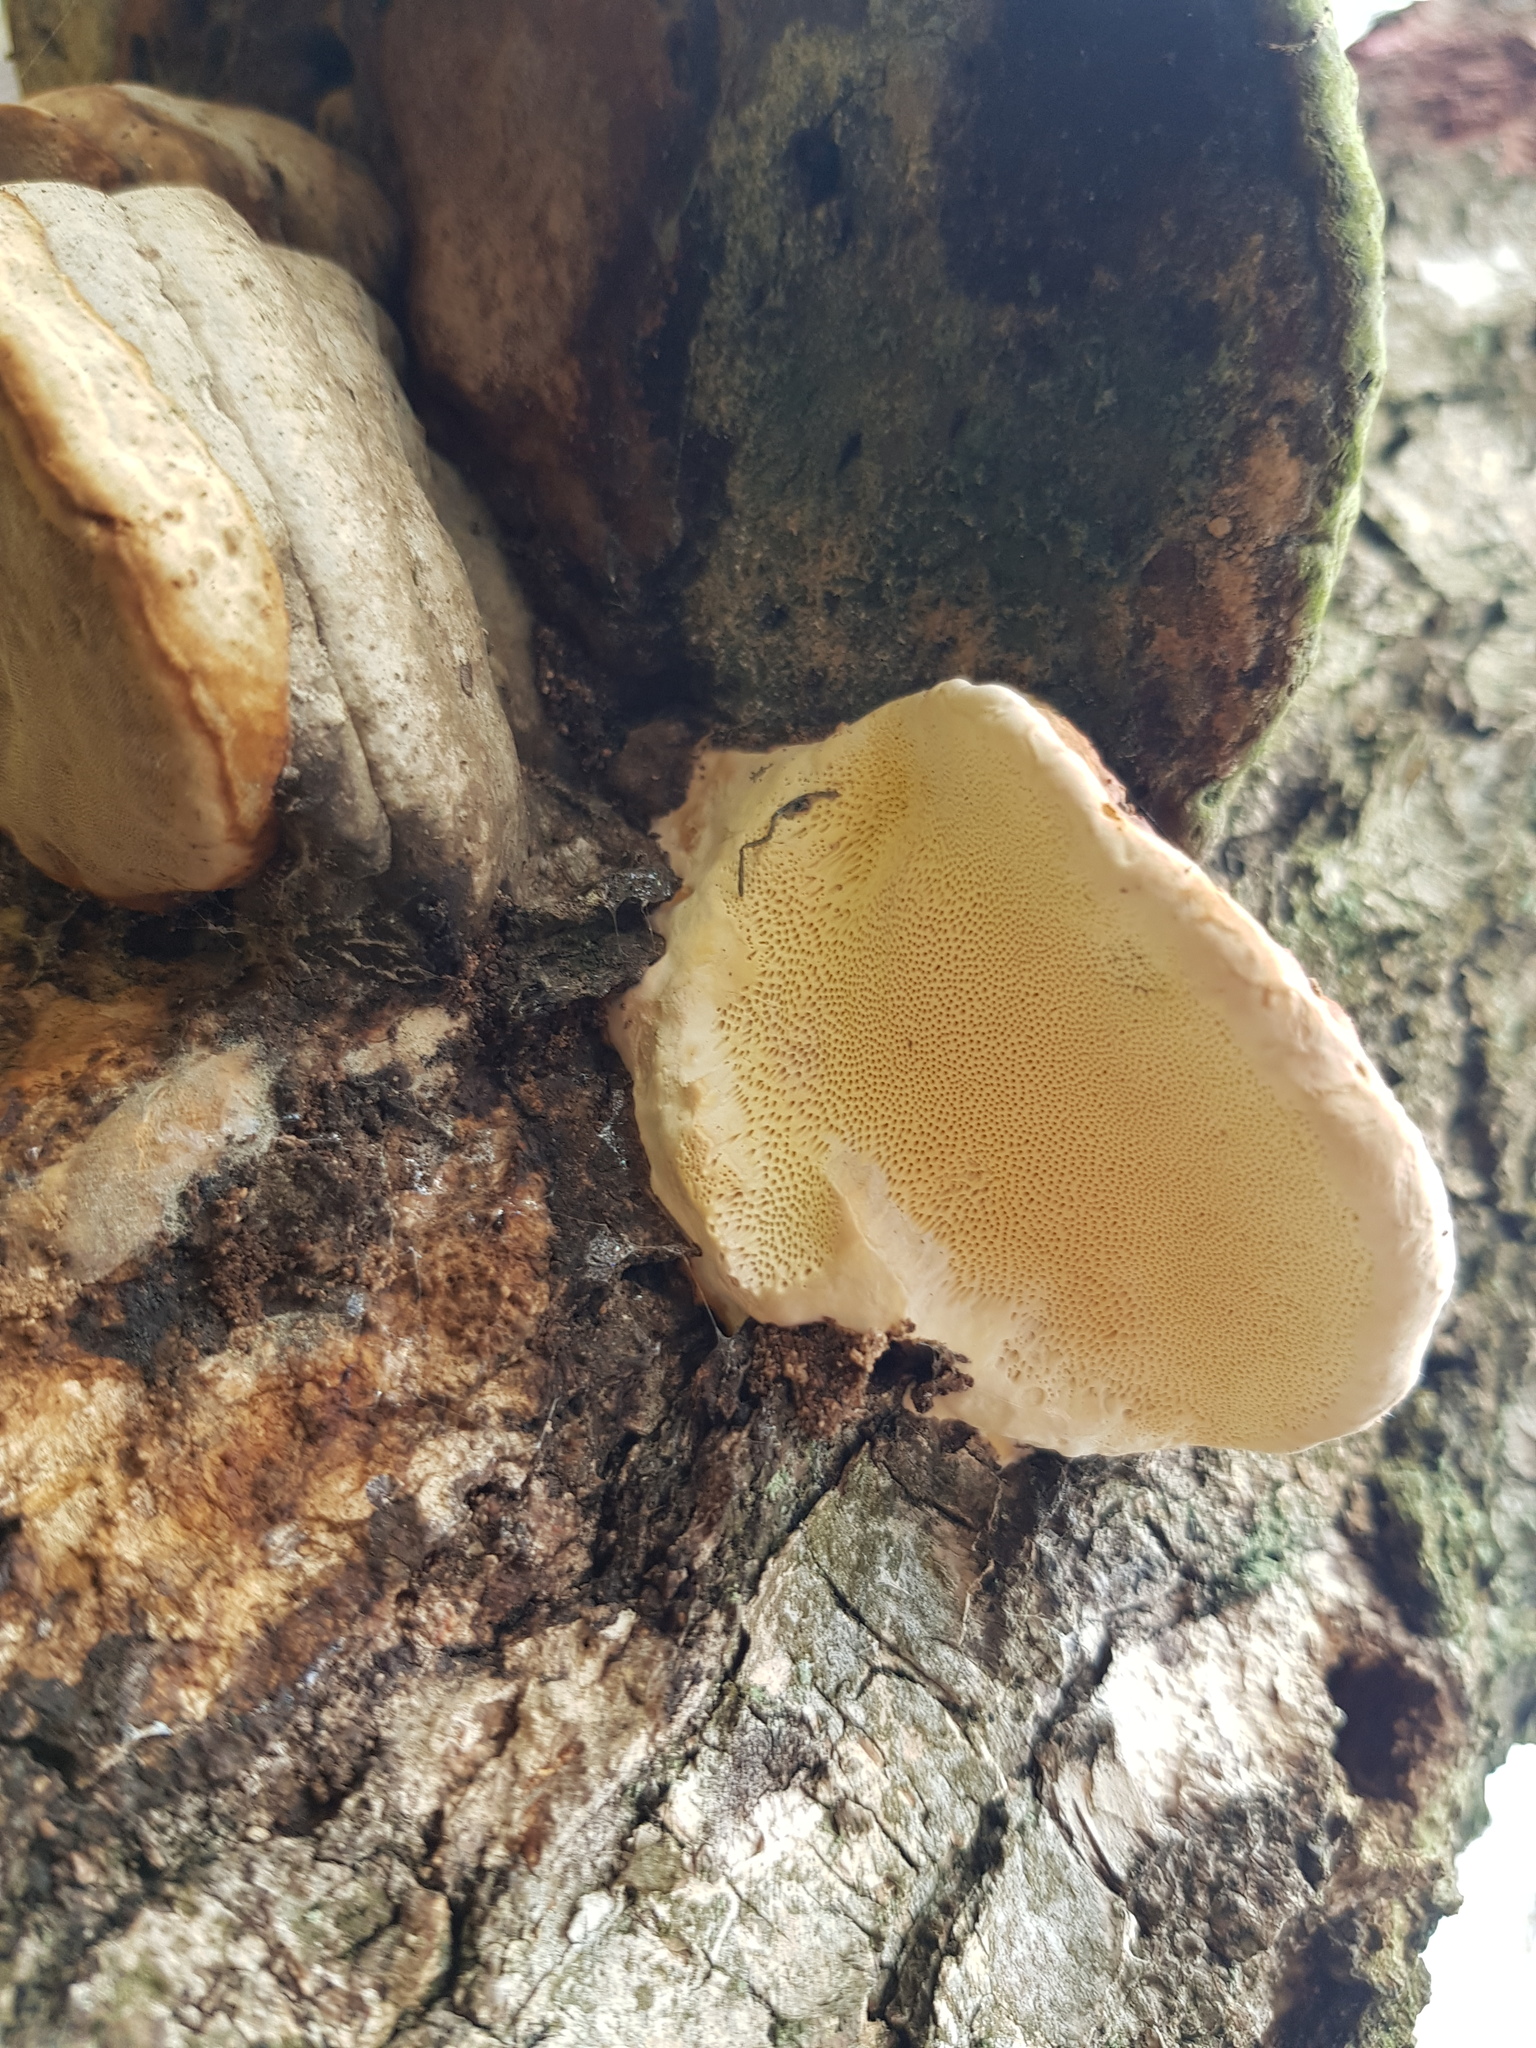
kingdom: Fungi
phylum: Basidiomycota
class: Agaricomycetes
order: Polyporales
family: Fomitopsidaceae
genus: Fomitopsis
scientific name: Fomitopsis pinicola
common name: Red-belted bracket
